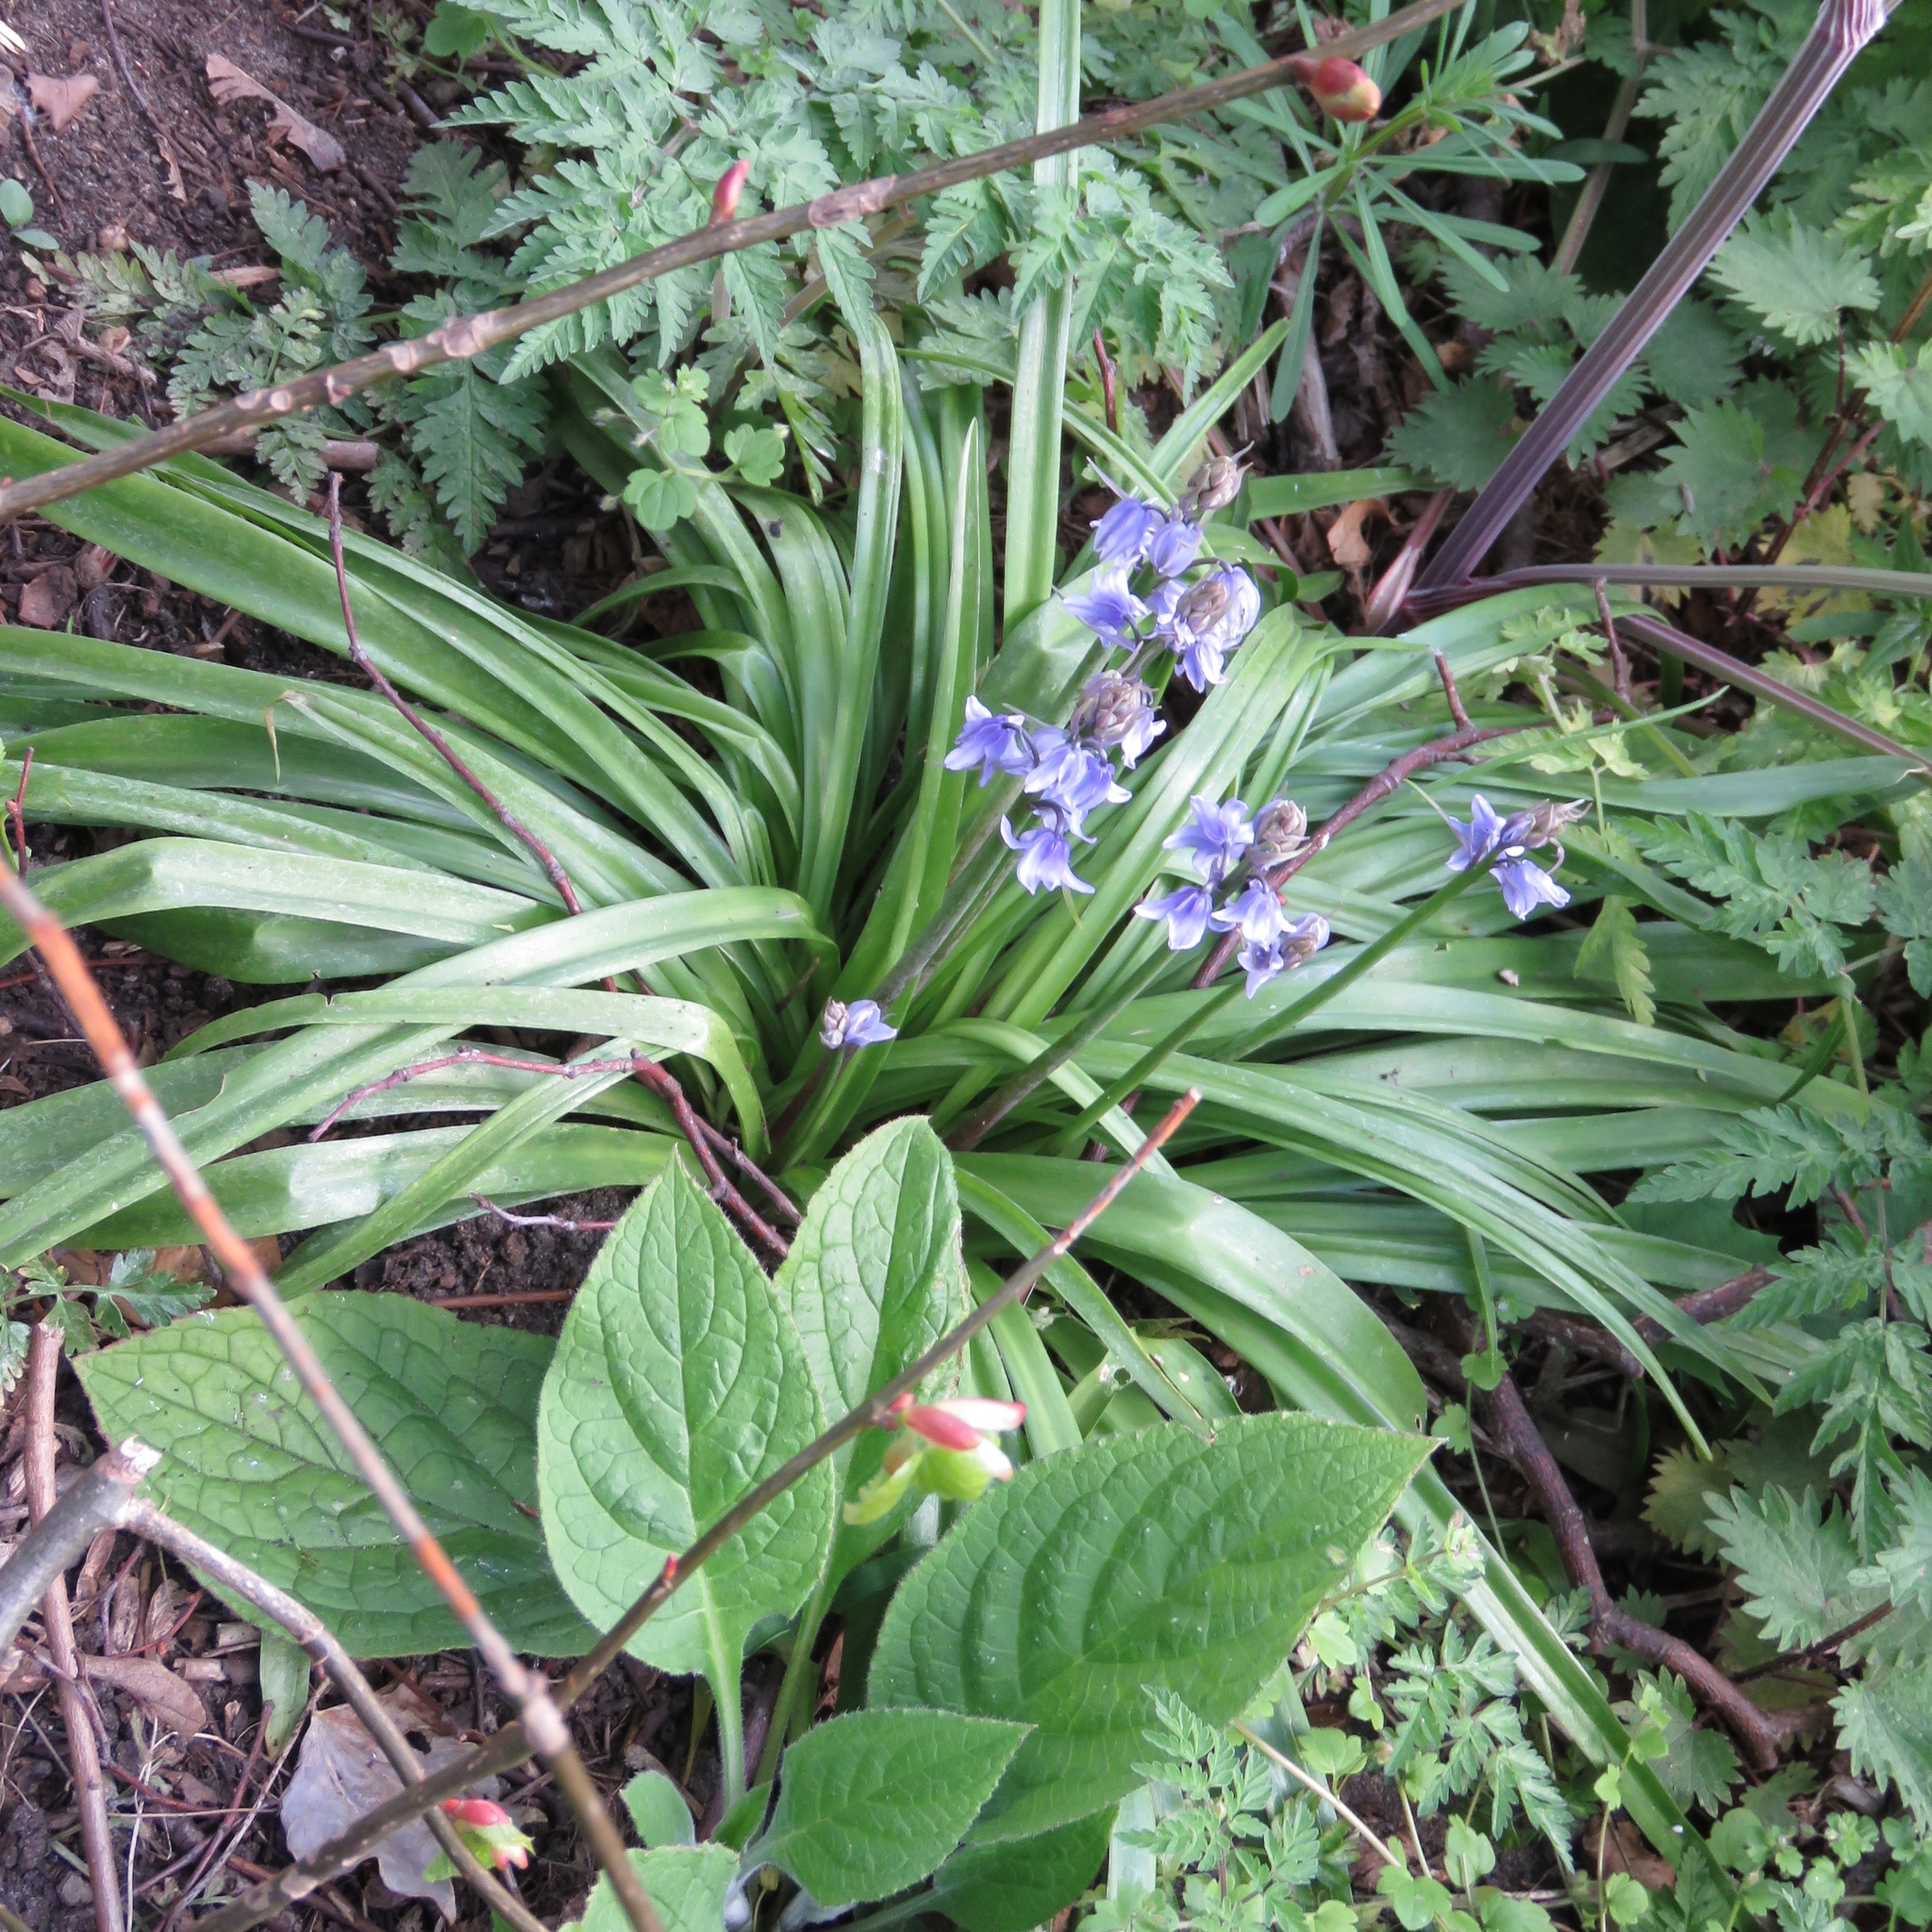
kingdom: Plantae
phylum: Tracheophyta
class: Liliopsida
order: Asparagales
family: Asparagaceae
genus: Hyacinthoides
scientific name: Hyacinthoides massartiana
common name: Hyacinthoides
